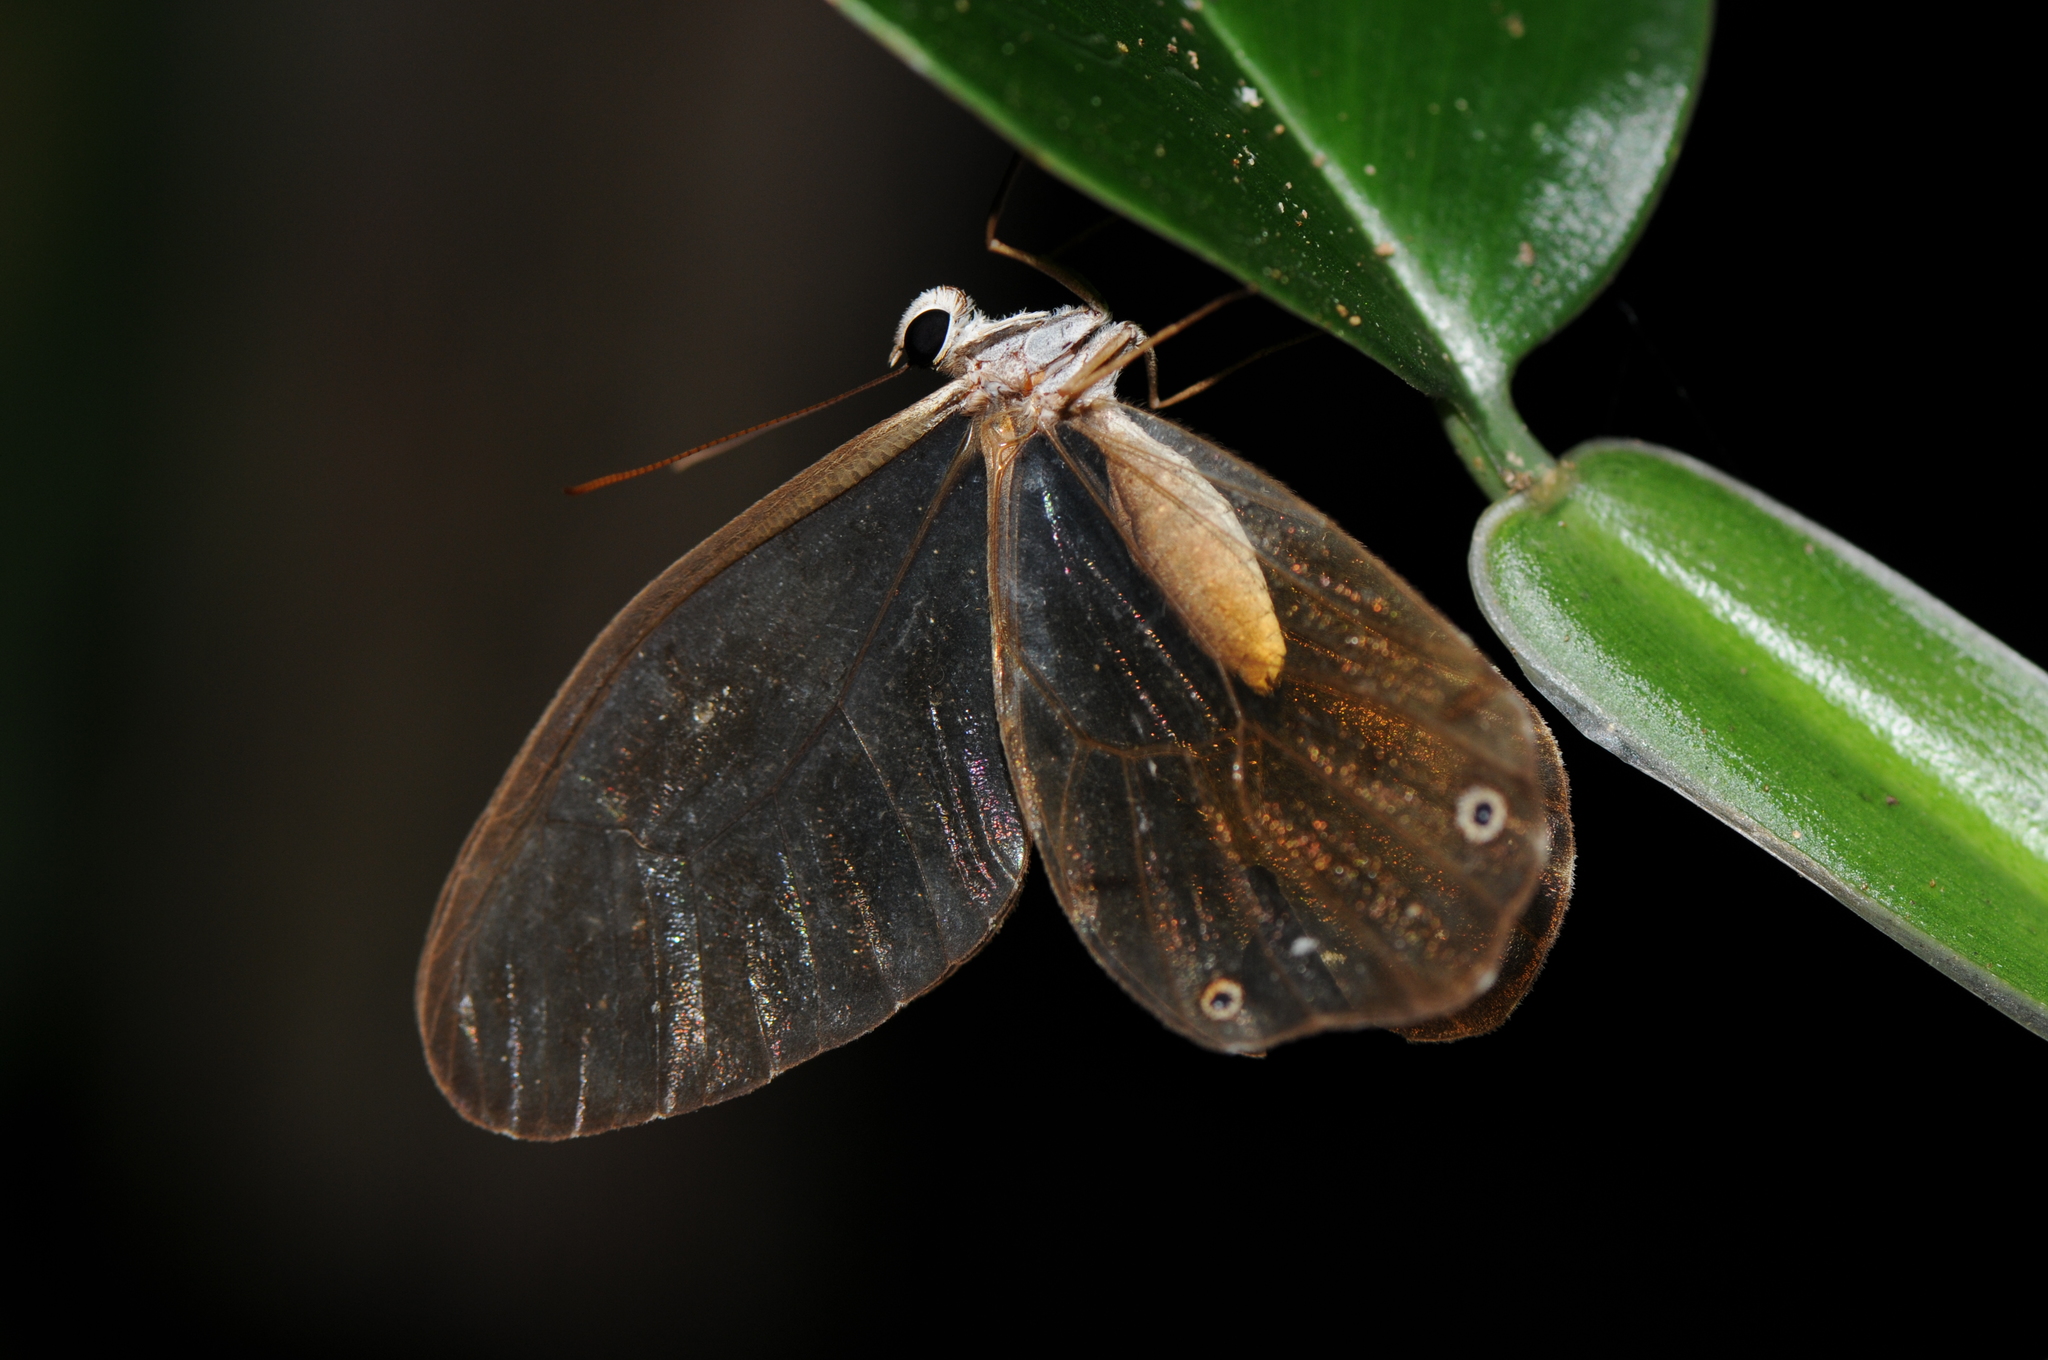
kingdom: Animalia
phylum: Arthropoda
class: Insecta
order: Lepidoptera
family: Nymphalidae
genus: Haetera
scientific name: Haetera piera
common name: Amber phantom
